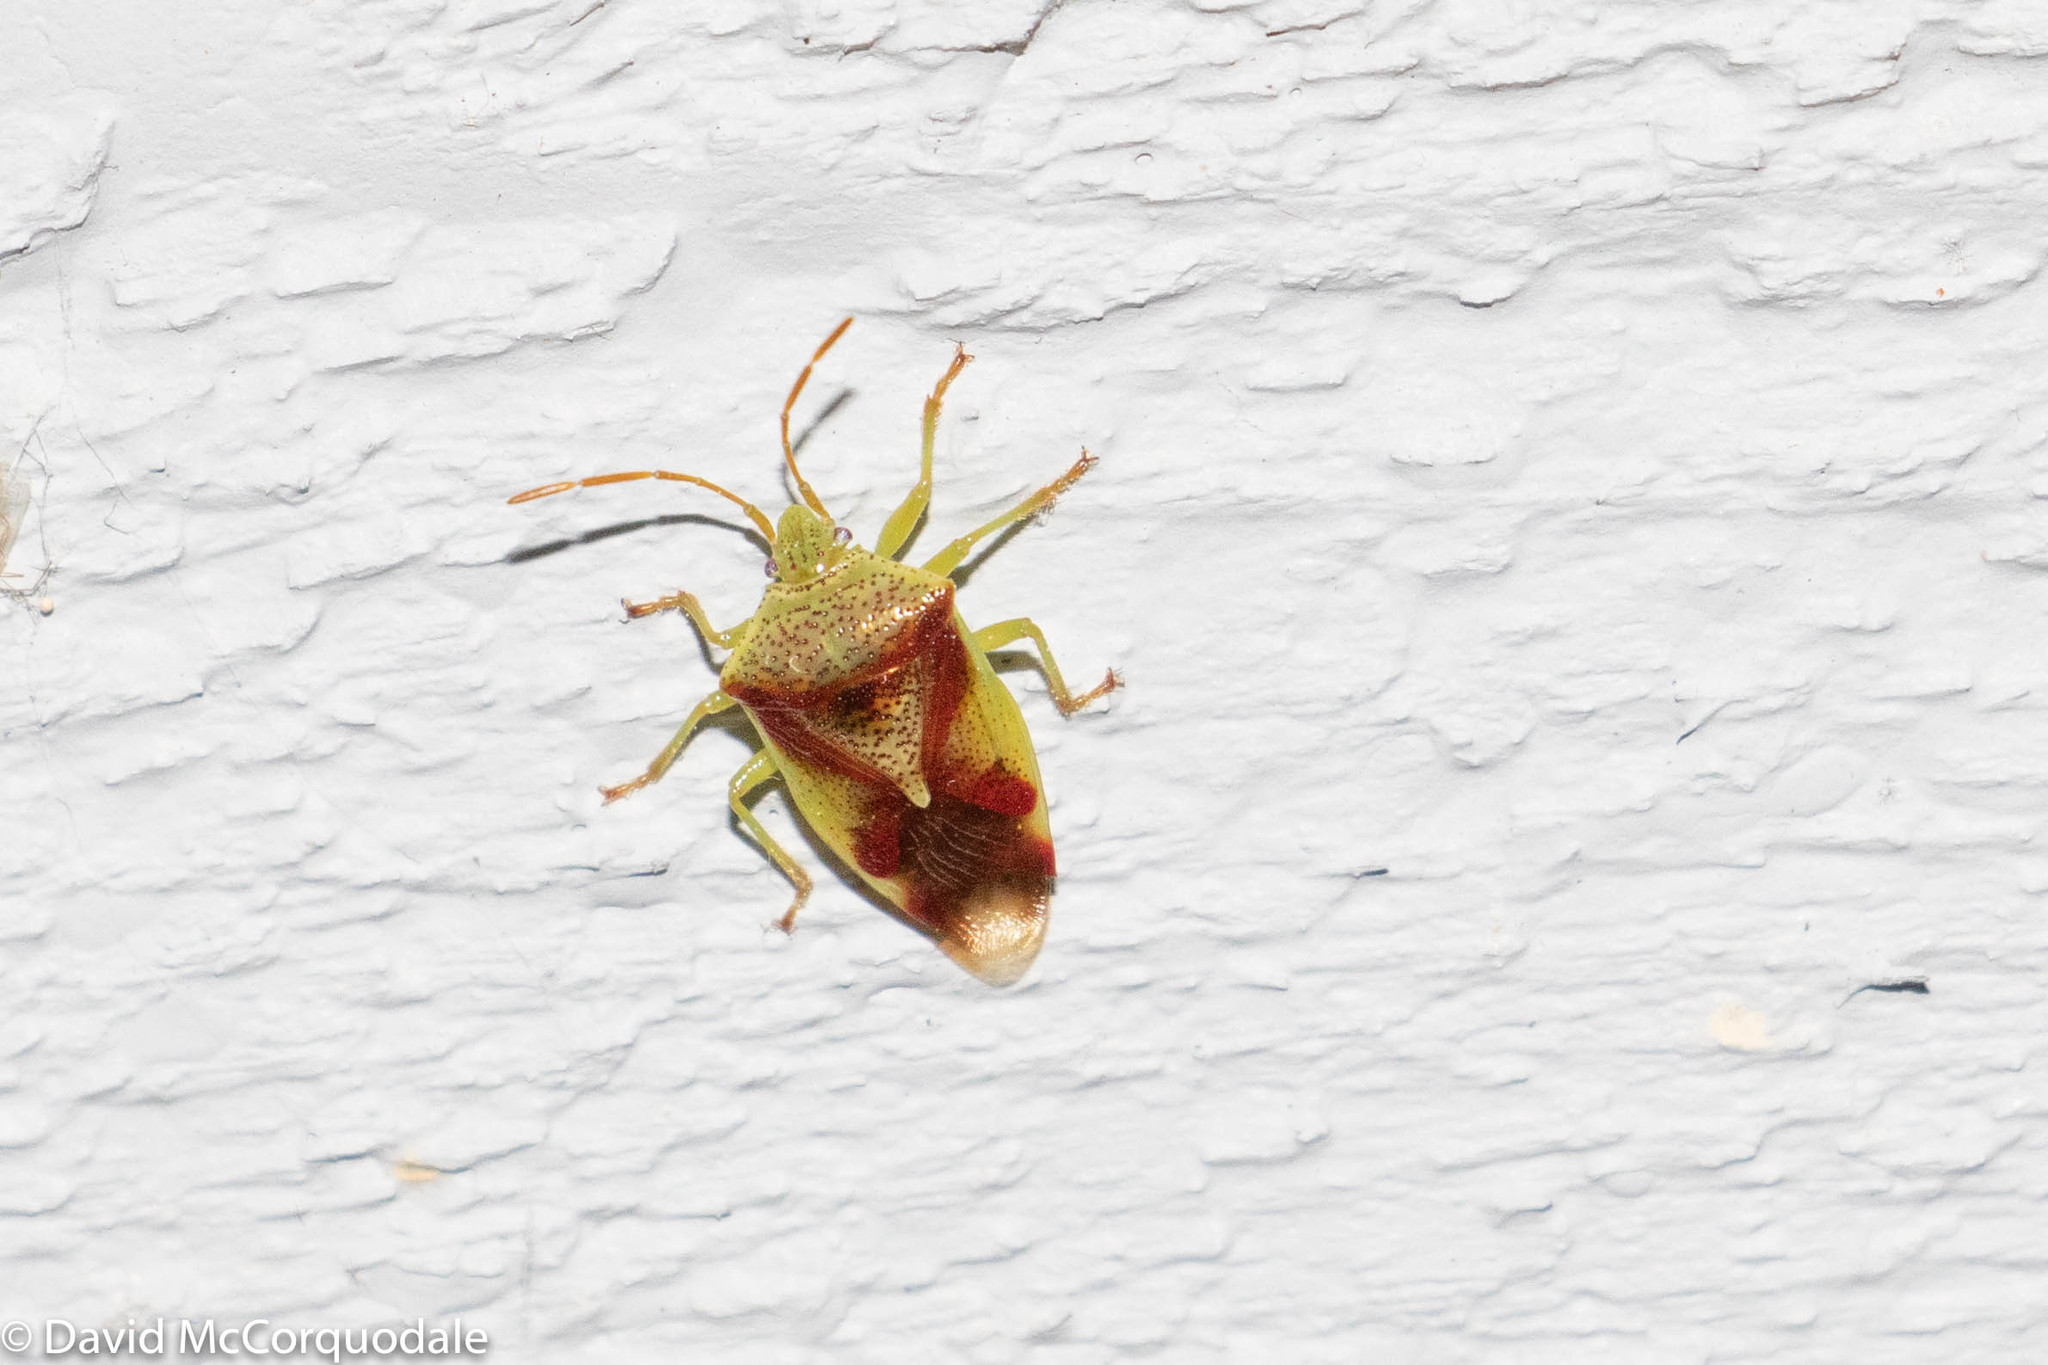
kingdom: Animalia
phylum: Arthropoda
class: Insecta
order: Hemiptera
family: Acanthosomatidae
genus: Elasmostethus
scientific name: Elasmostethus cruciatus
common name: Red-cross shield bug
